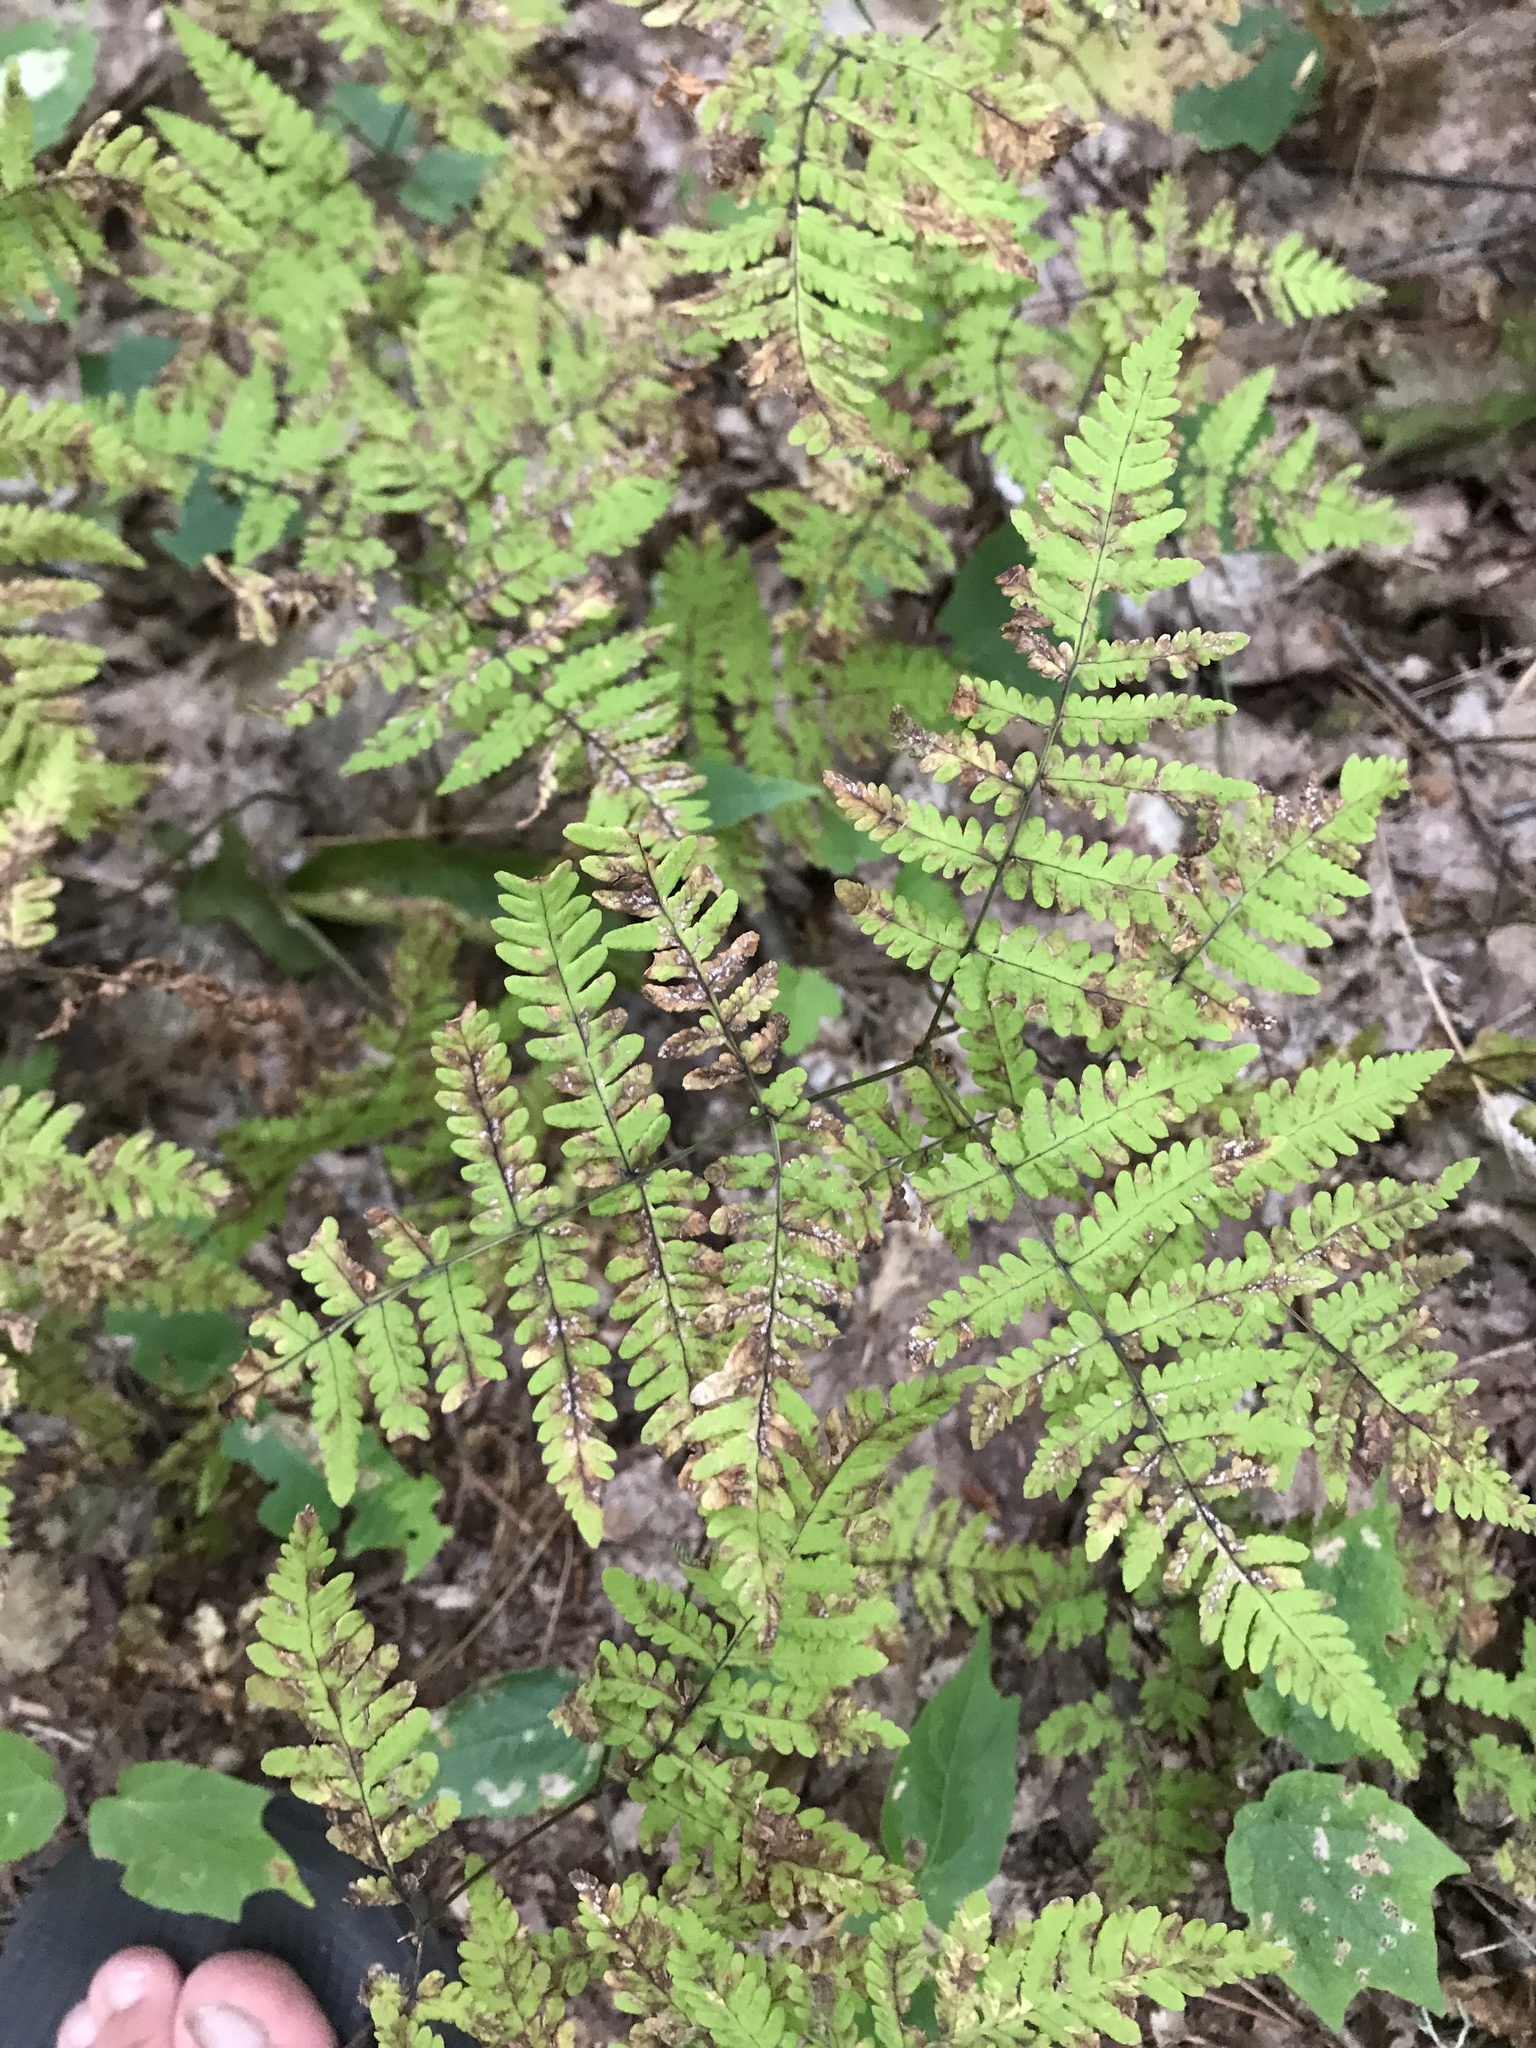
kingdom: Plantae
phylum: Tracheophyta
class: Polypodiopsida
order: Polypodiales
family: Cystopteridaceae
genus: Gymnocarpium
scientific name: Gymnocarpium dryopteris
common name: Oak fern
